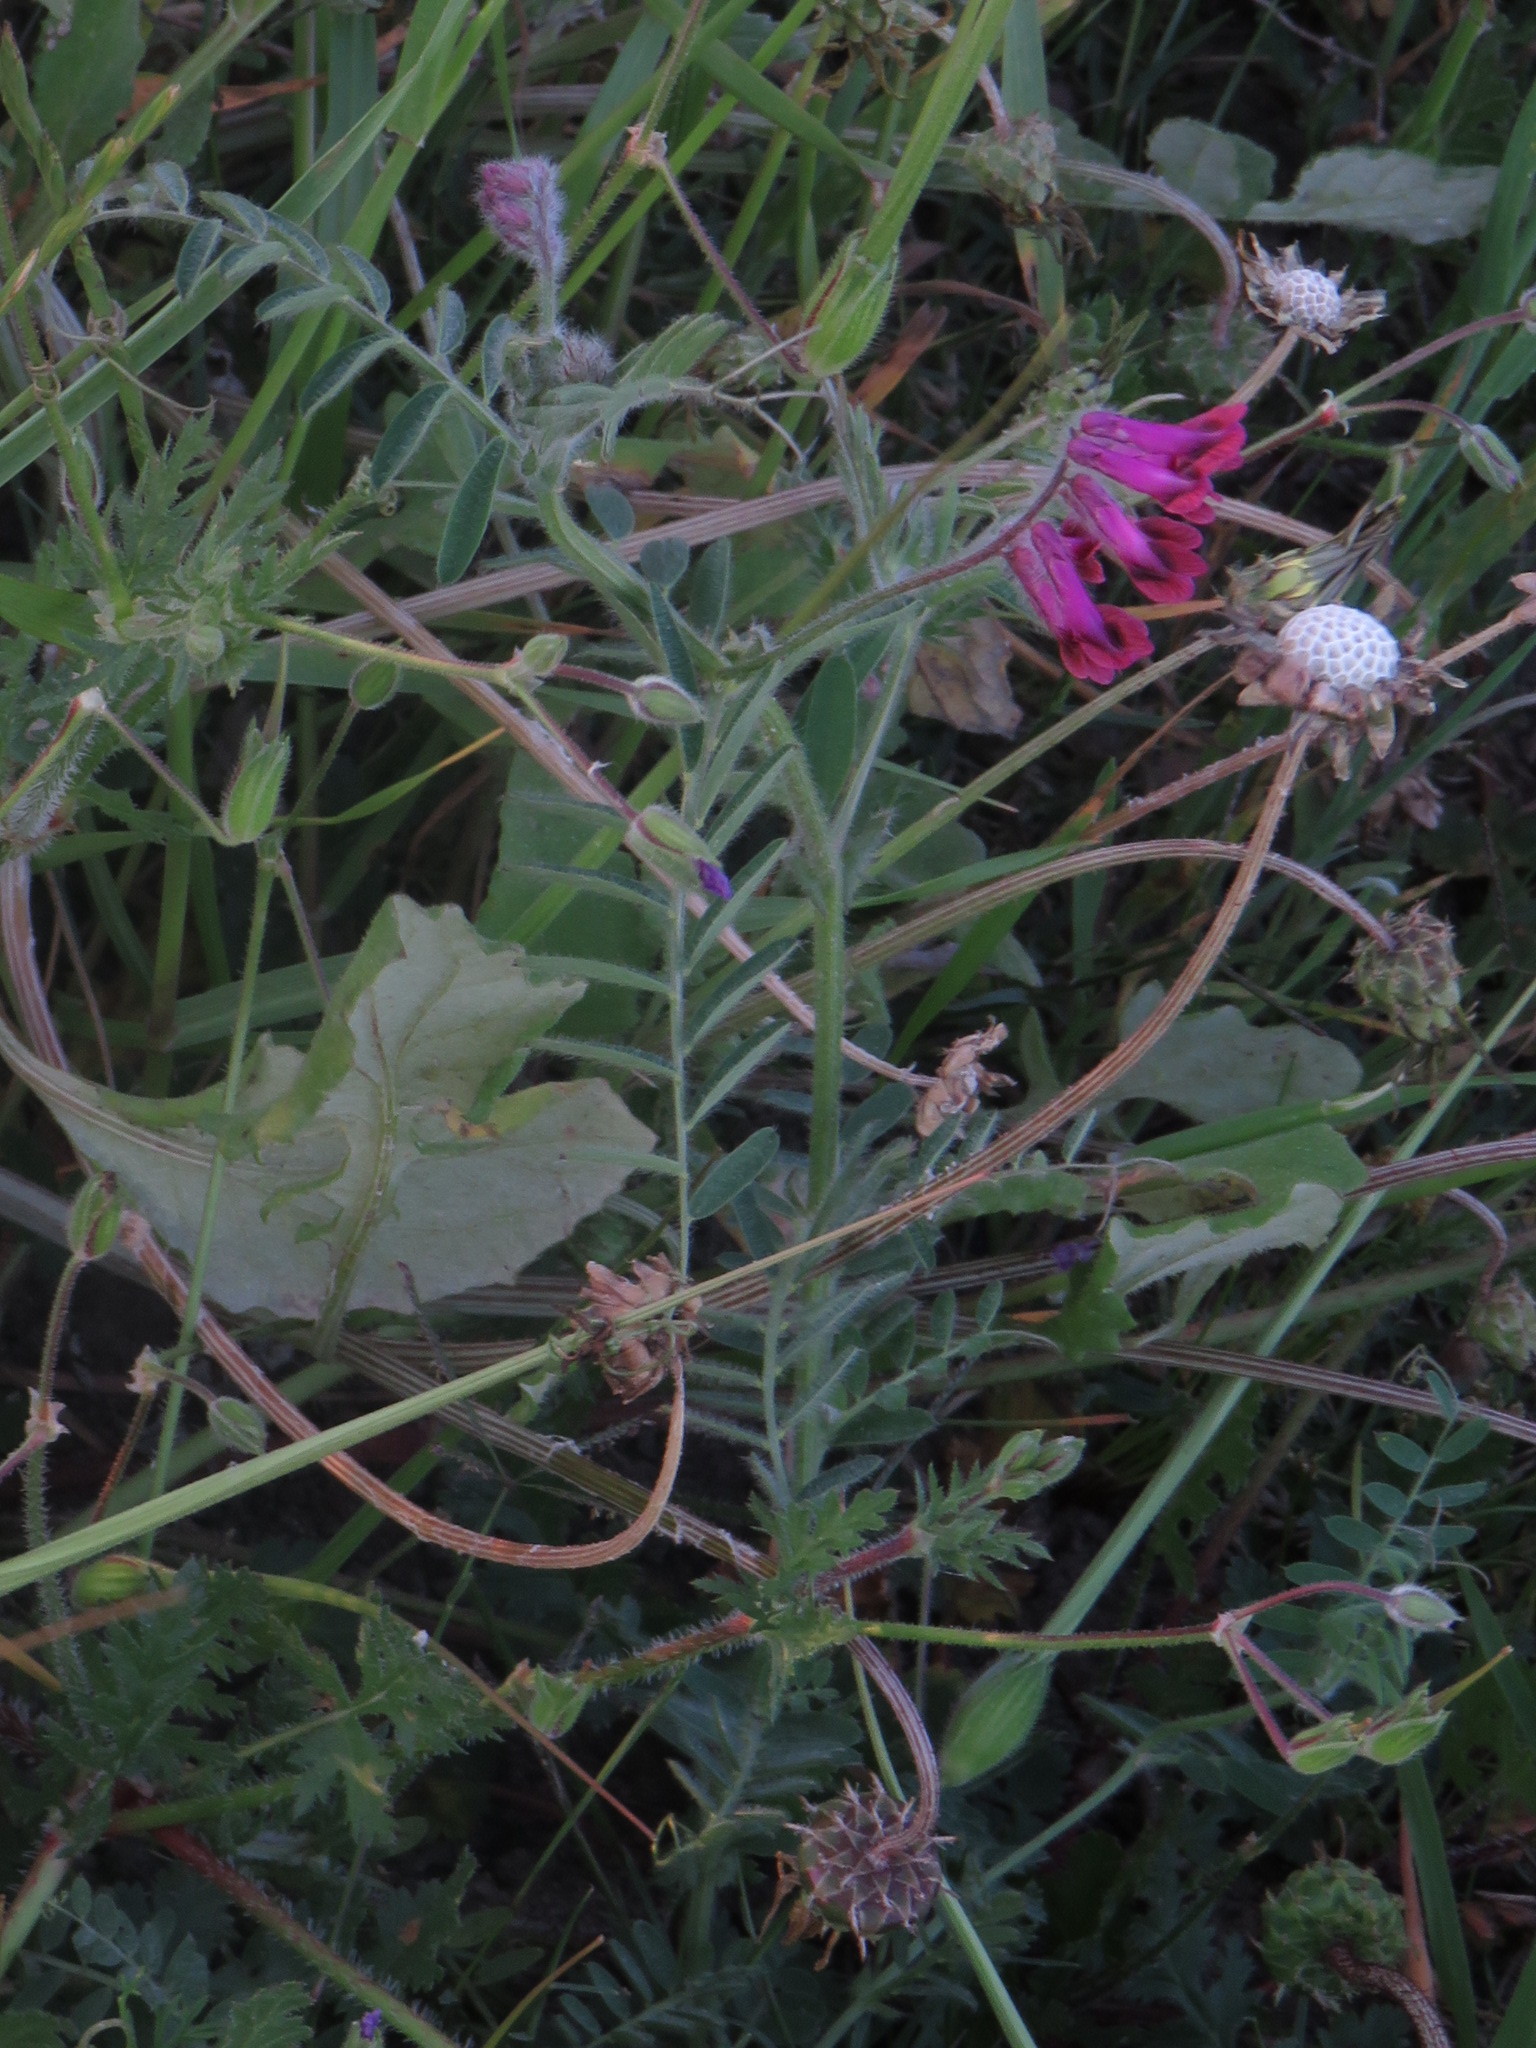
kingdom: Plantae
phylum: Tracheophyta
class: Magnoliopsida
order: Fabales
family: Fabaceae
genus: Vicia
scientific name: Vicia benghalensis
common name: Purple vetch
